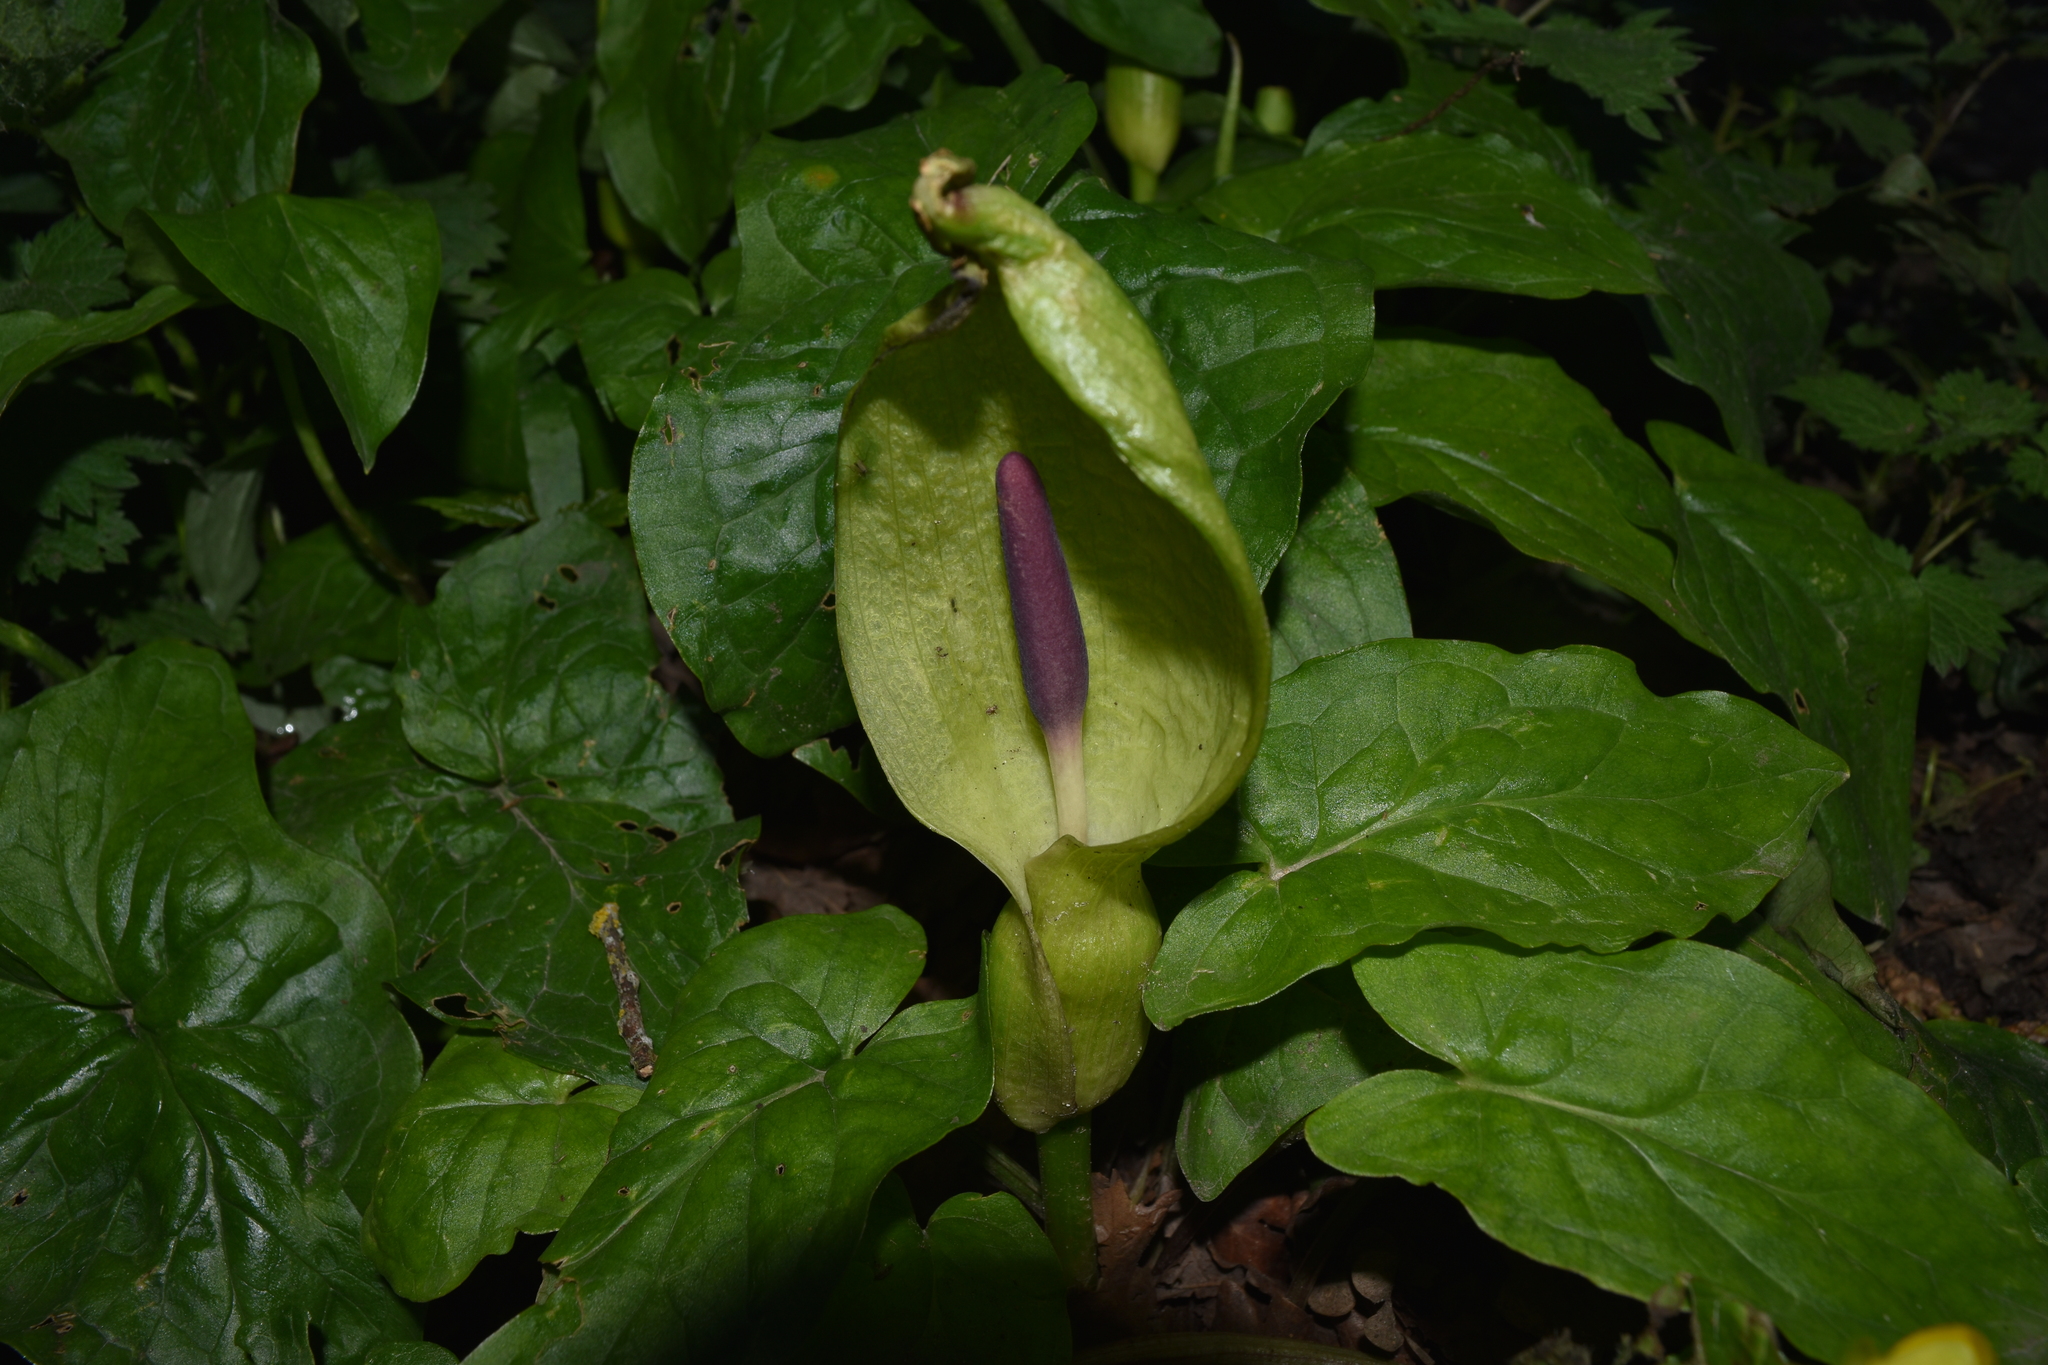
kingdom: Plantae
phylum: Tracheophyta
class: Liliopsida
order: Alismatales
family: Araceae
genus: Arum
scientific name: Arum maculatum
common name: Lords-and-ladies
